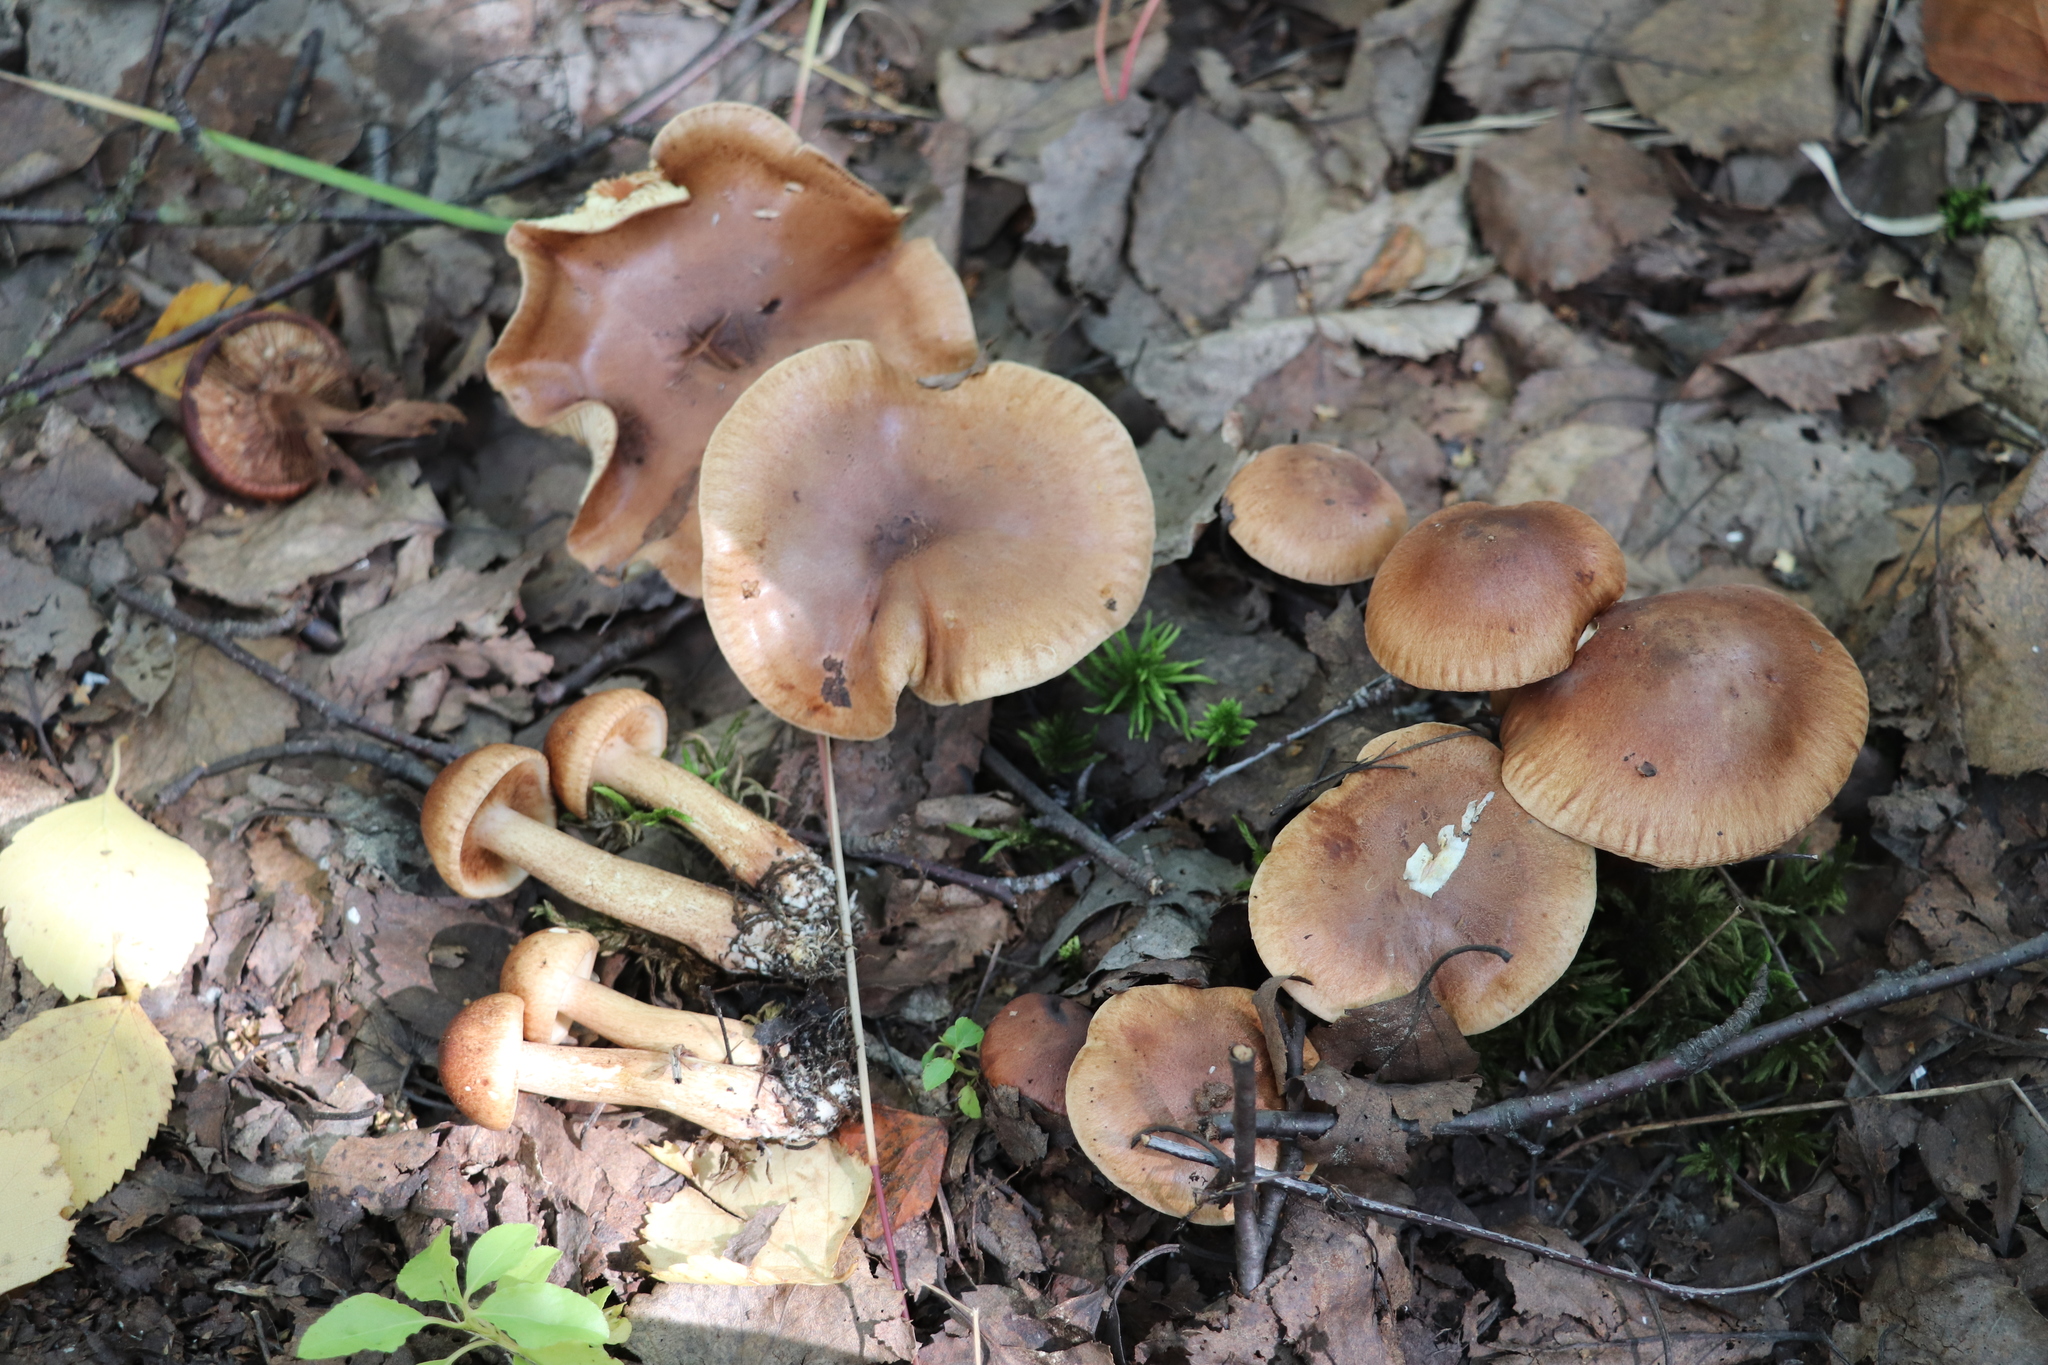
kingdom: Fungi
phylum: Basidiomycota
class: Agaricomycetes
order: Agaricales
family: Tricholomataceae
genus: Tricholoma
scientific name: Tricholoma fulvum
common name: Birch knight
